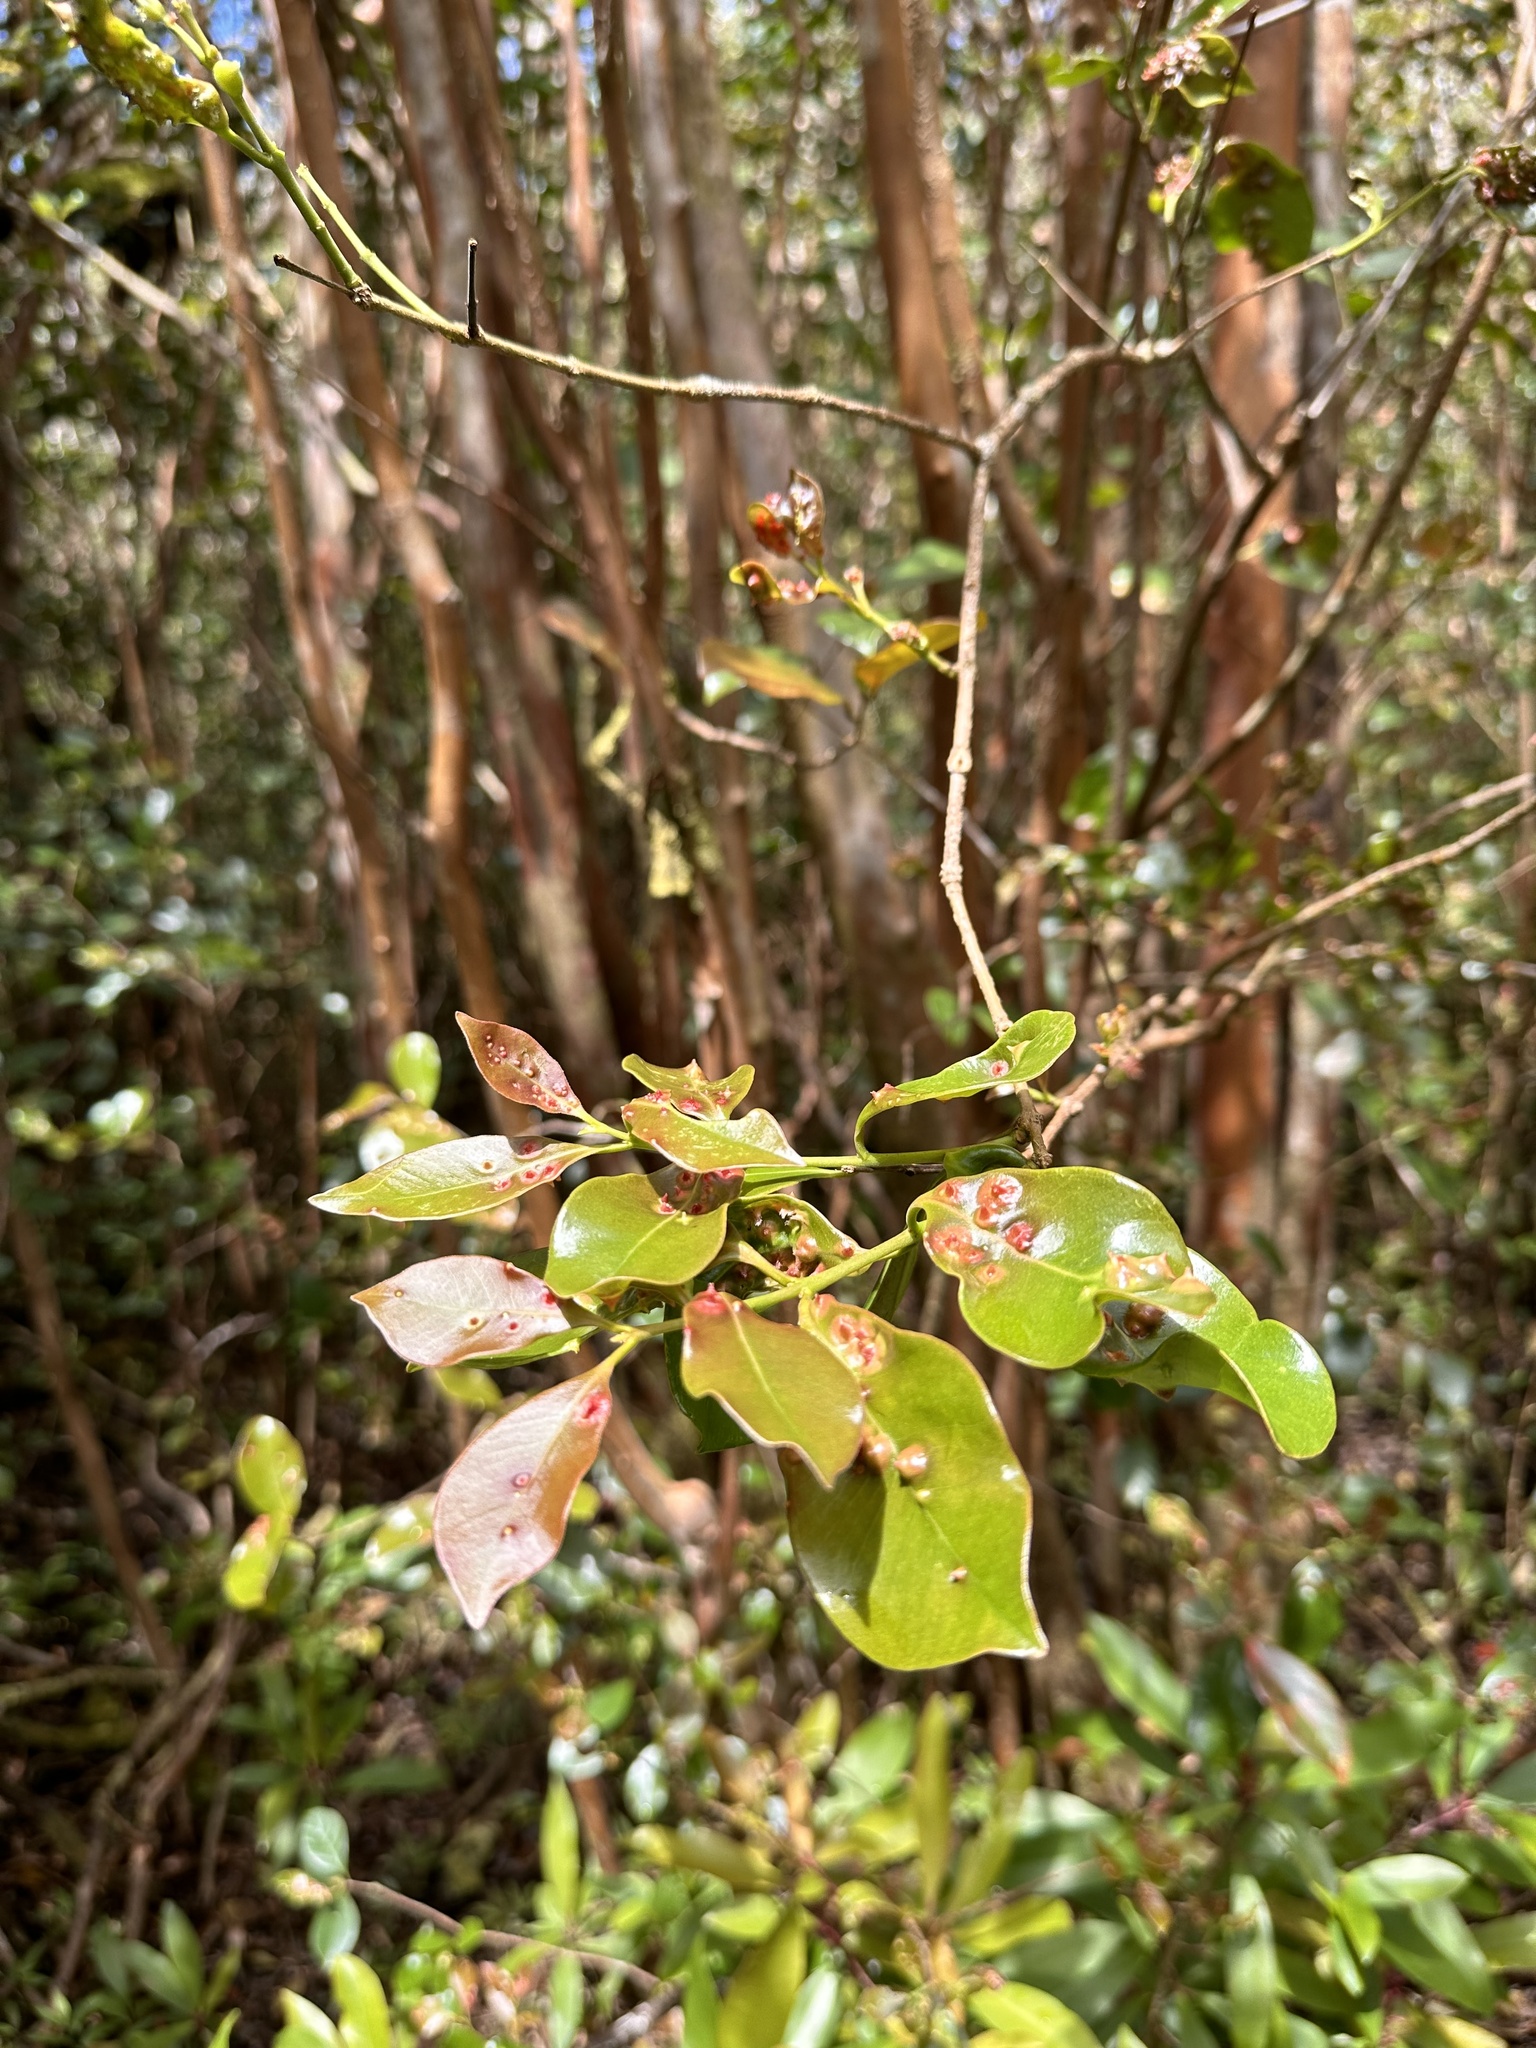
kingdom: Animalia
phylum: Arthropoda
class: Insecta
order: Hemiptera
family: Eriococcidae
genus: Tectococcus
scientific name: Tectococcus ovatus
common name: Eriococcid scale
